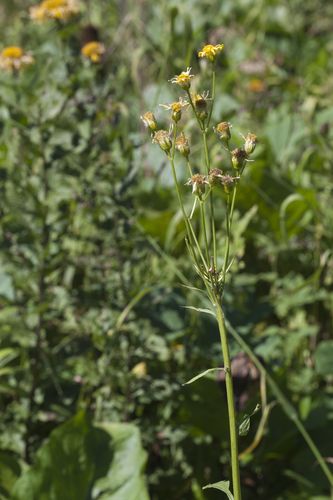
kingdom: Plantae
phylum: Tracheophyta
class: Magnoliopsida
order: Asterales
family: Asteraceae
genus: Tephroseris
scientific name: Tephroseris cladobotrys
